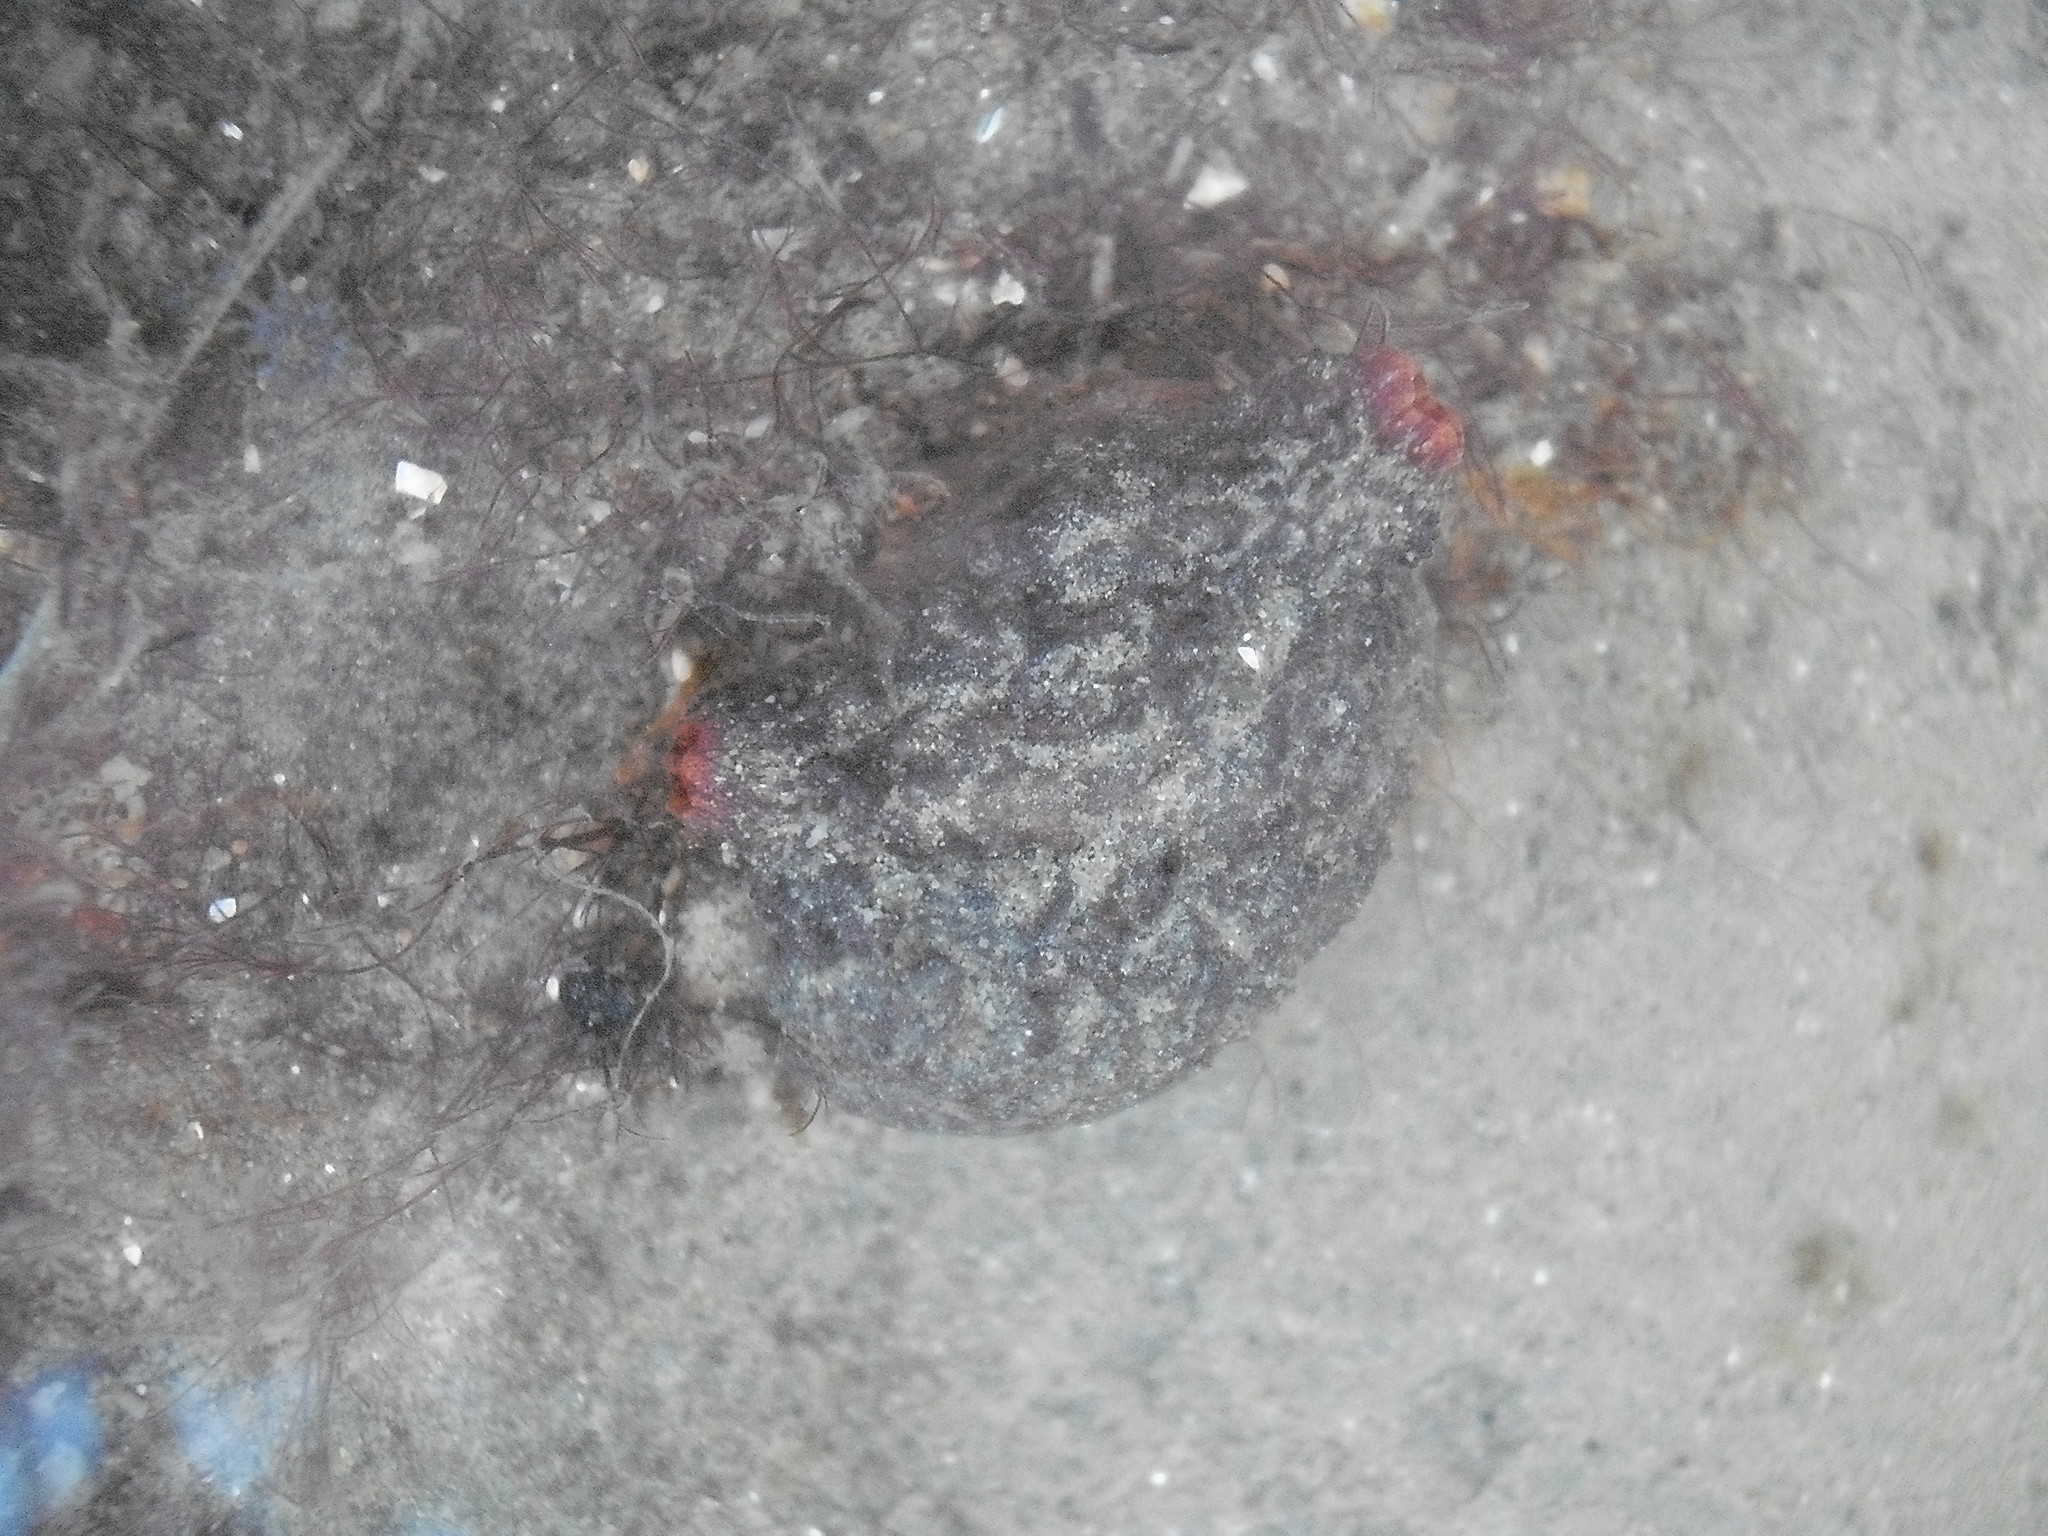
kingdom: Animalia
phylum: Chordata
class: Ascidiacea
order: Stolidobranchia
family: Pyuridae
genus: Microcosmus
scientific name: Microcosmus squamiger
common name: Scaly tunicate
